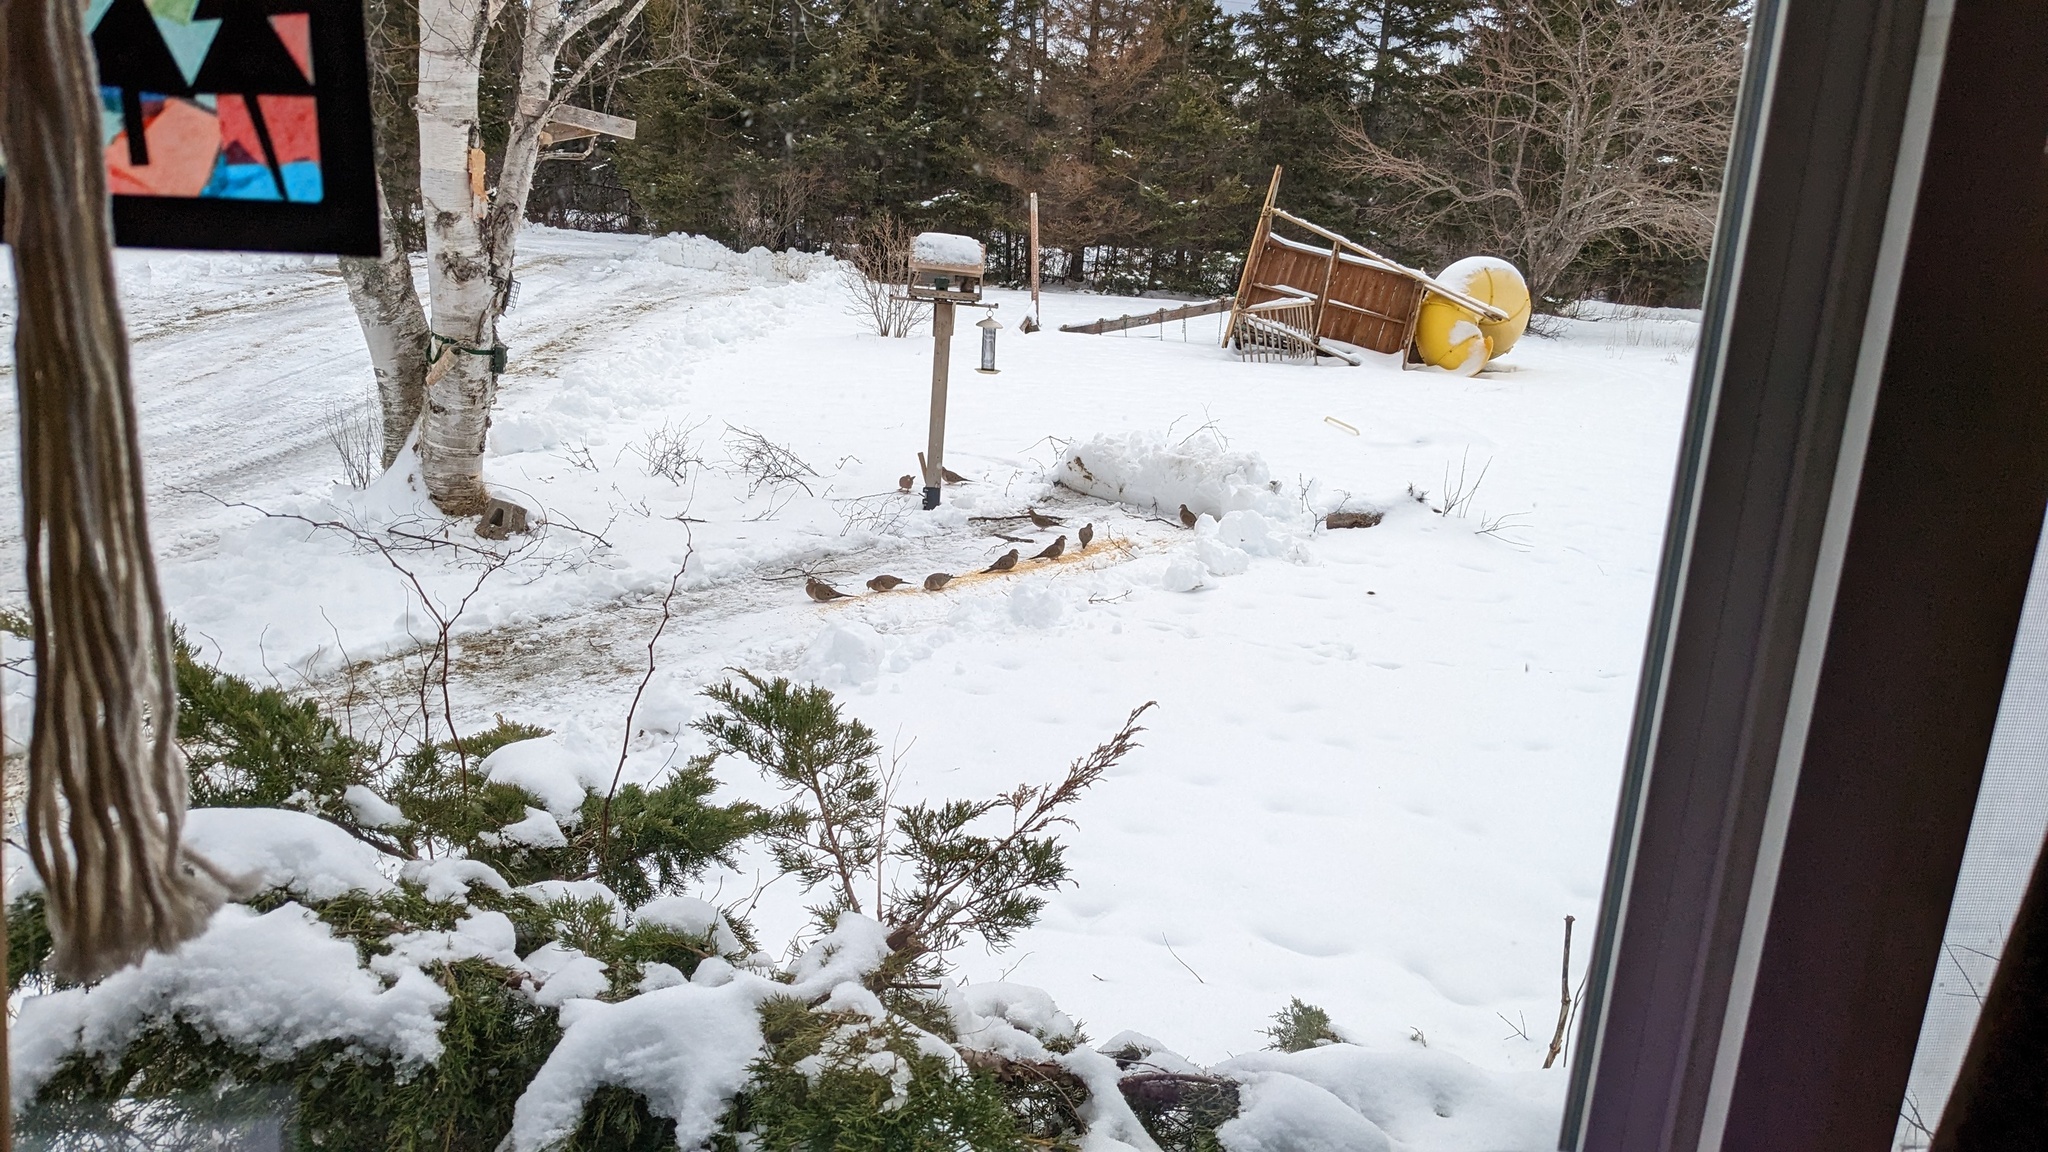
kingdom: Animalia
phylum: Chordata
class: Aves
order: Columbiformes
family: Columbidae
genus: Zenaida
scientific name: Zenaida macroura
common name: Mourning dove
